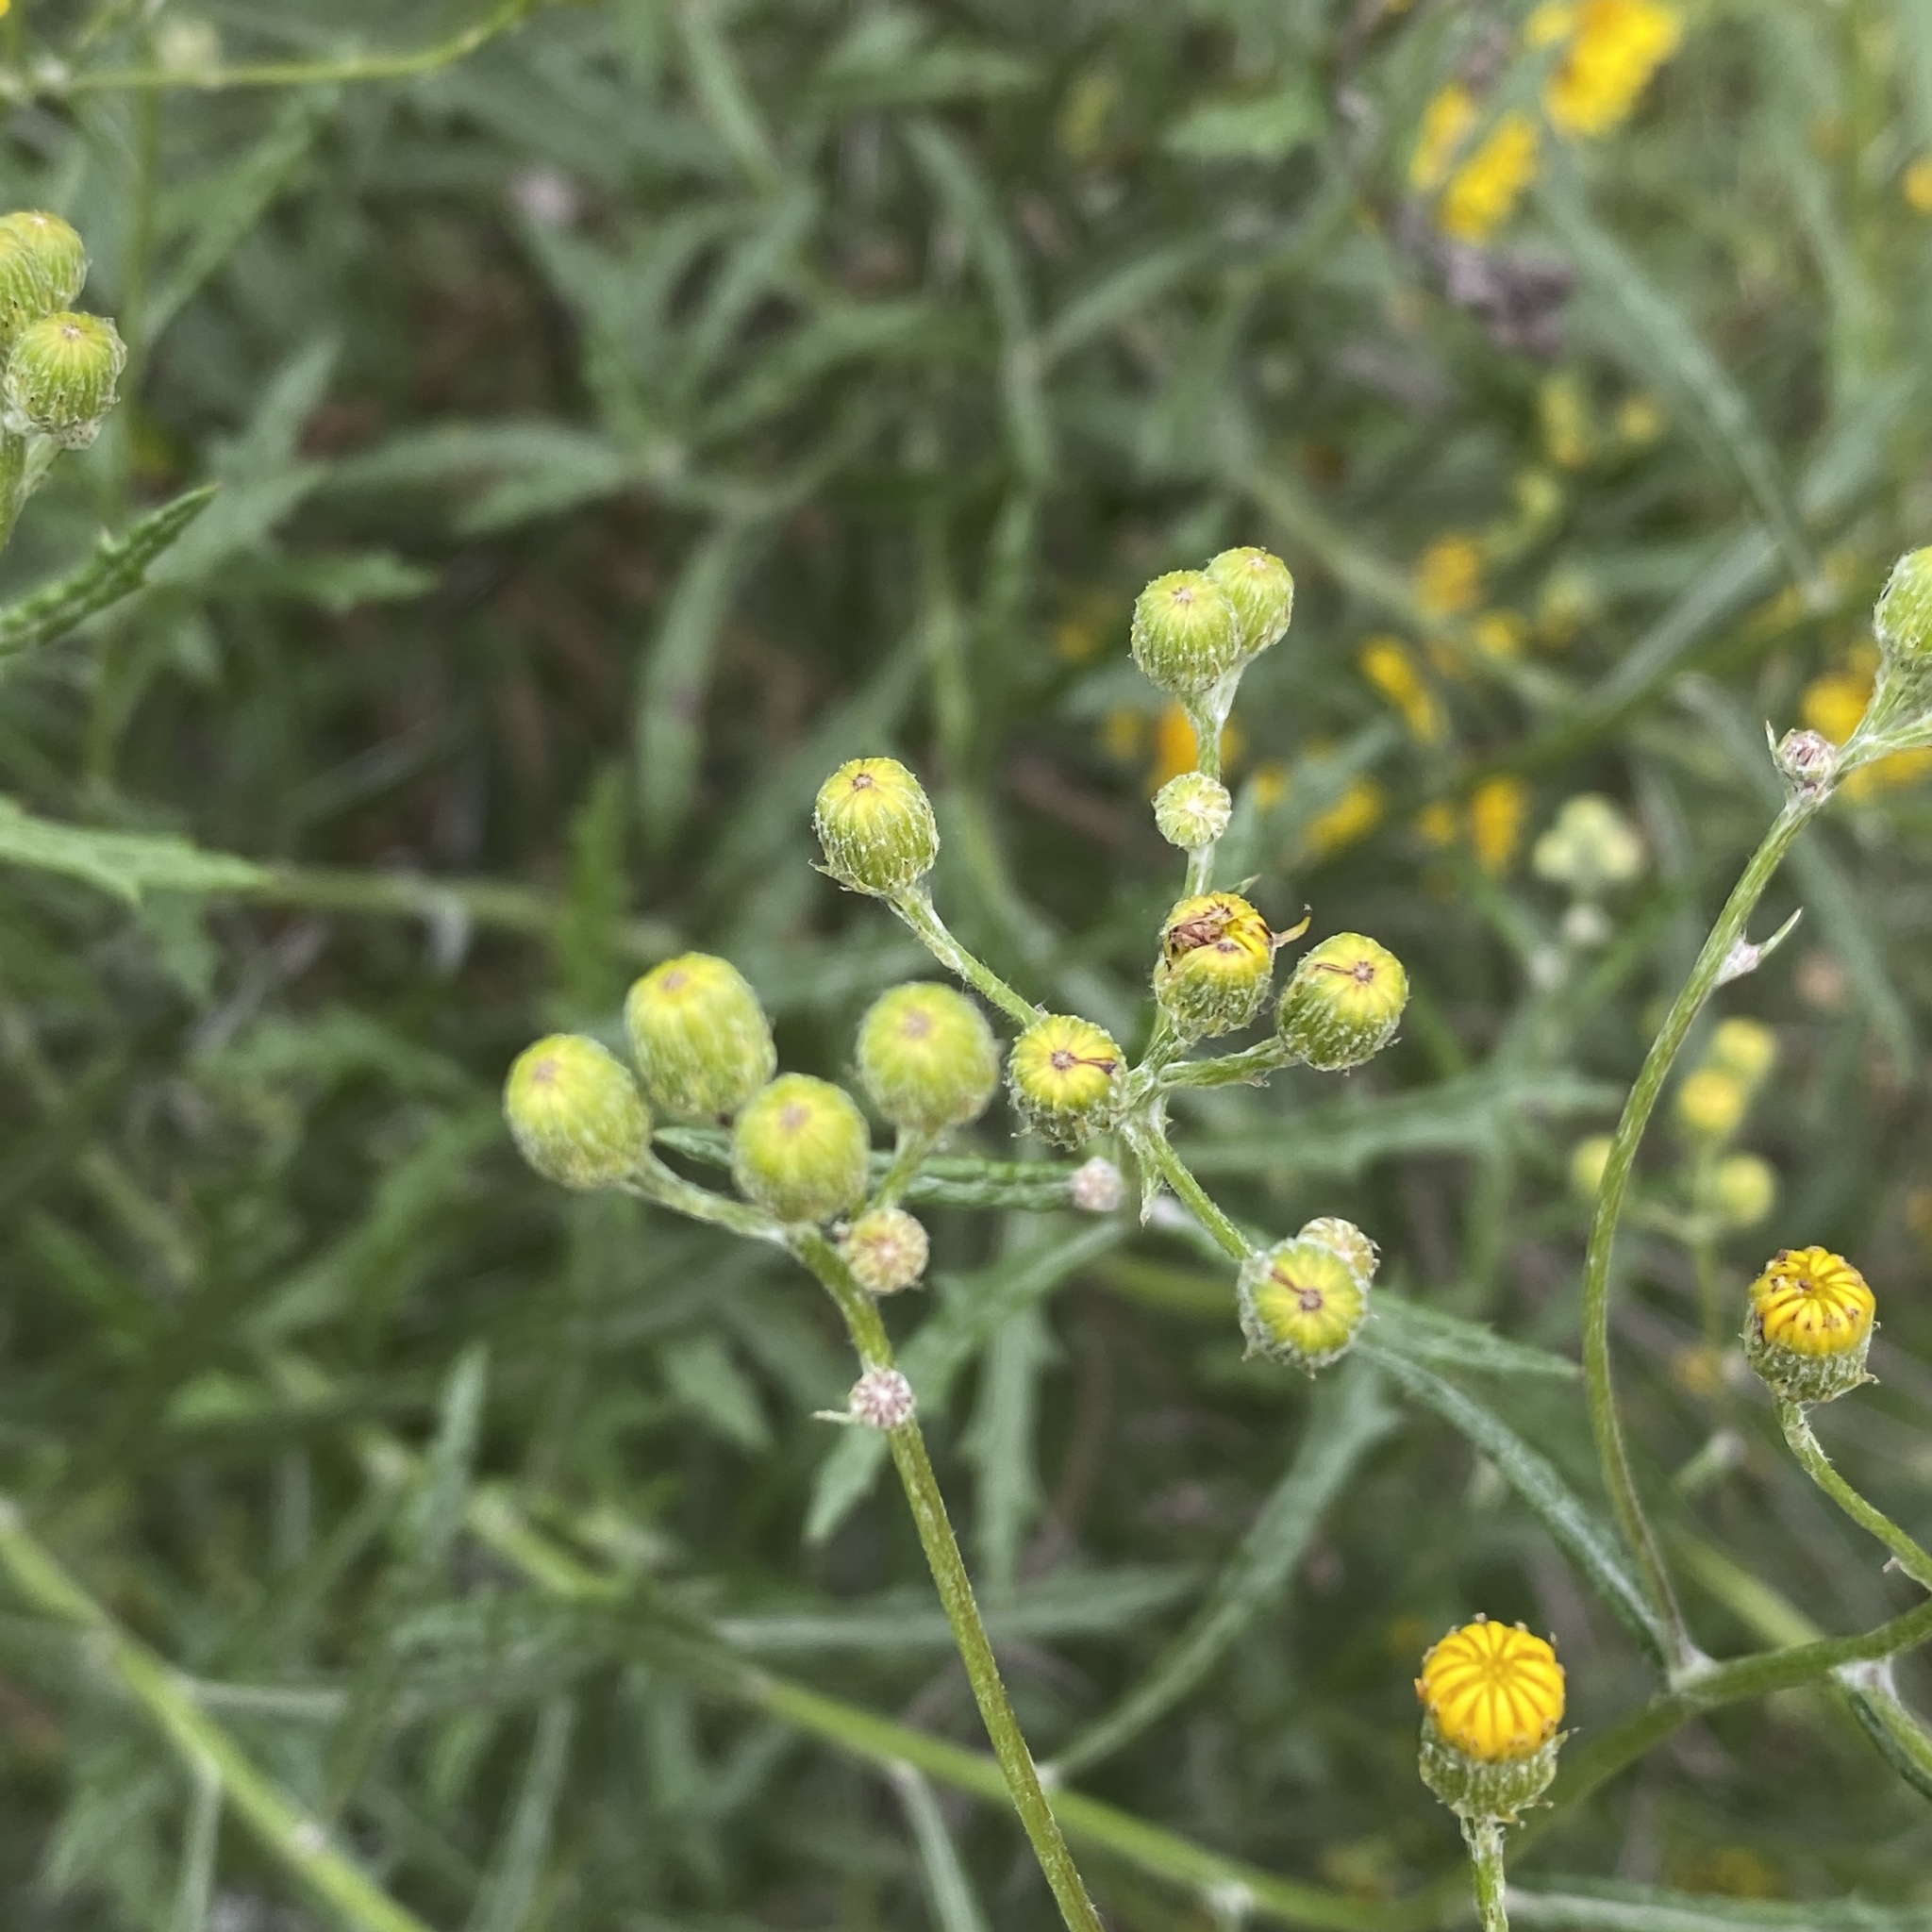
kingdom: Plantae
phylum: Tracheophyta
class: Magnoliopsida
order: Asterales
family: Asteraceae
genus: Senecio
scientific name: Senecio pterophorus
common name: Shoddy ragwort
